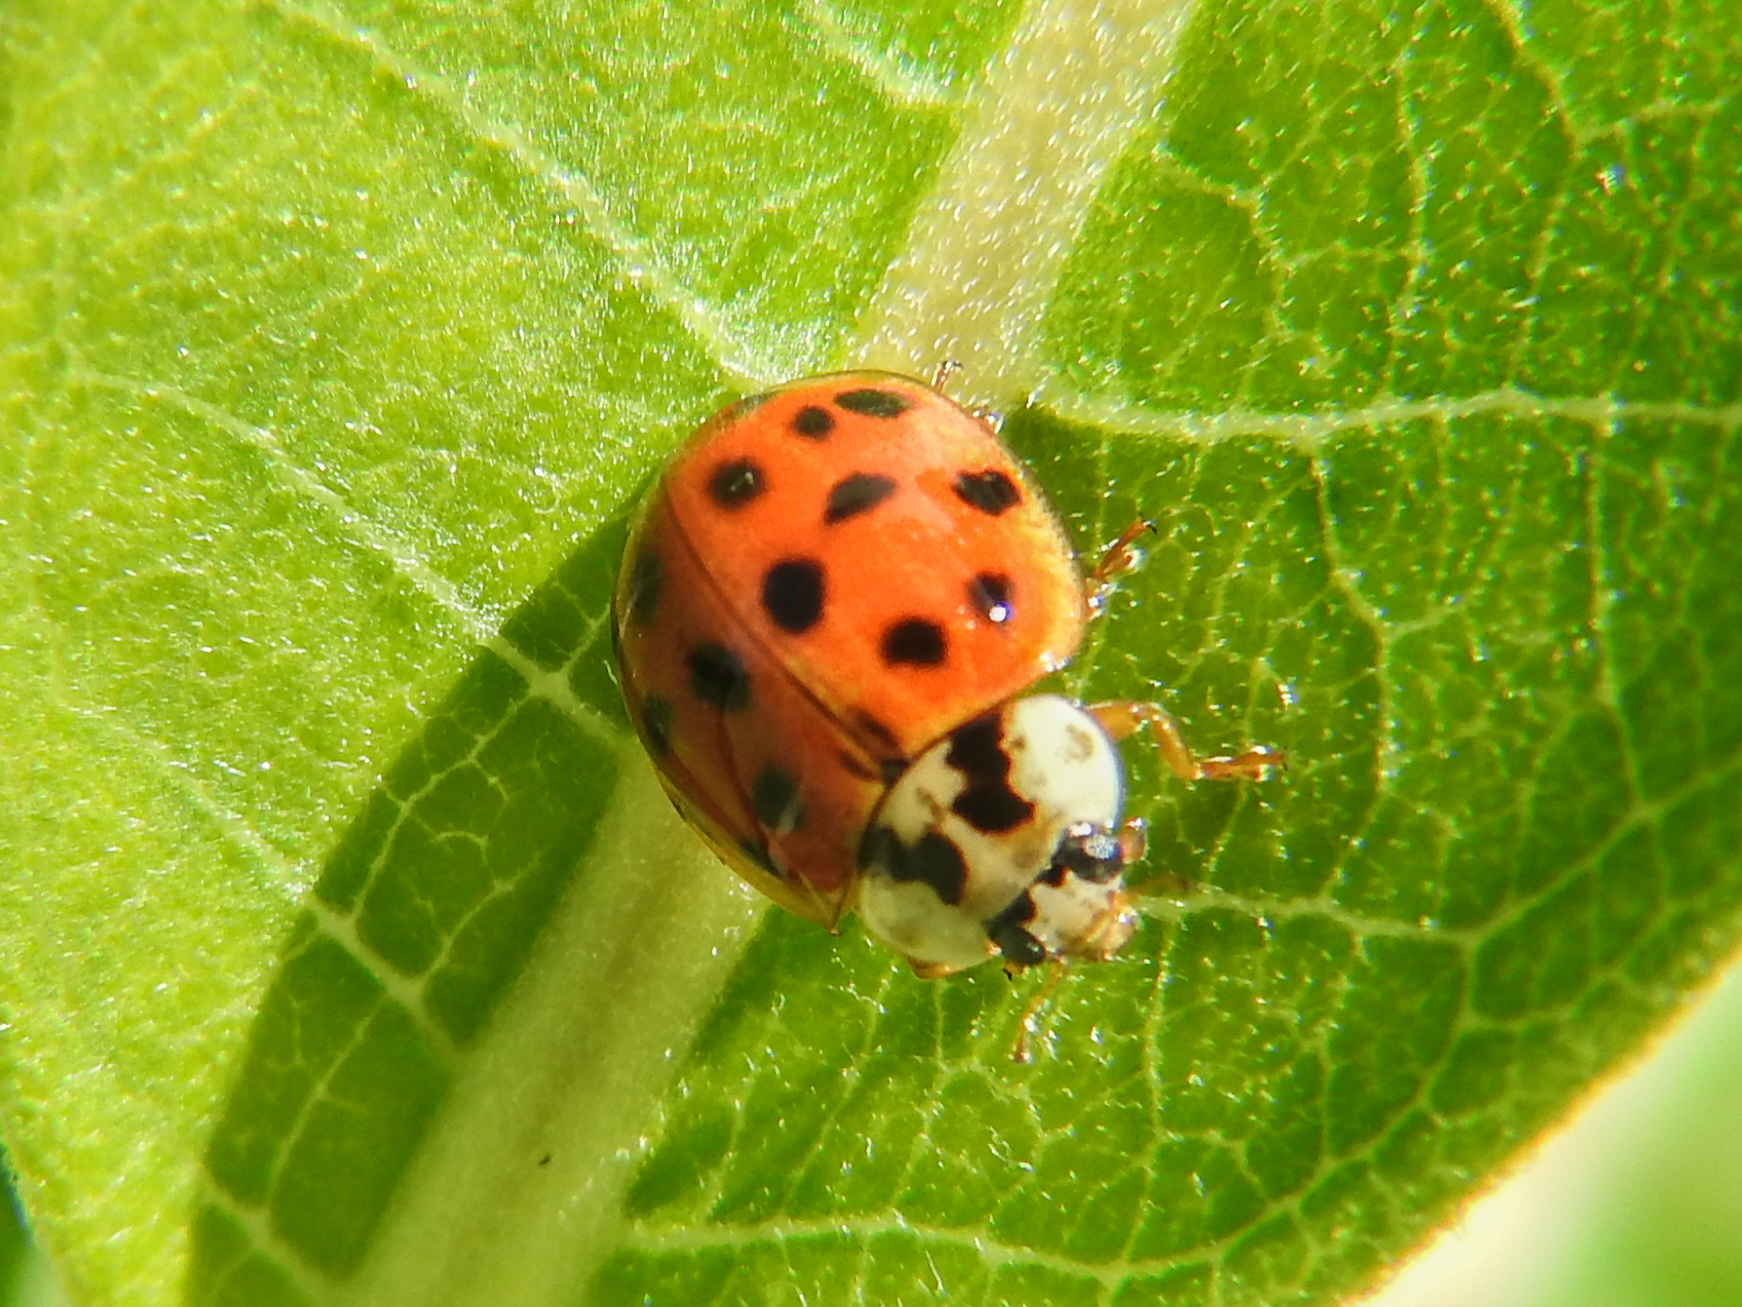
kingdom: Animalia
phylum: Arthropoda
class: Insecta
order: Coleoptera
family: Coccinellidae
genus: Harmonia
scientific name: Harmonia axyridis
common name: Harlequin ladybird
